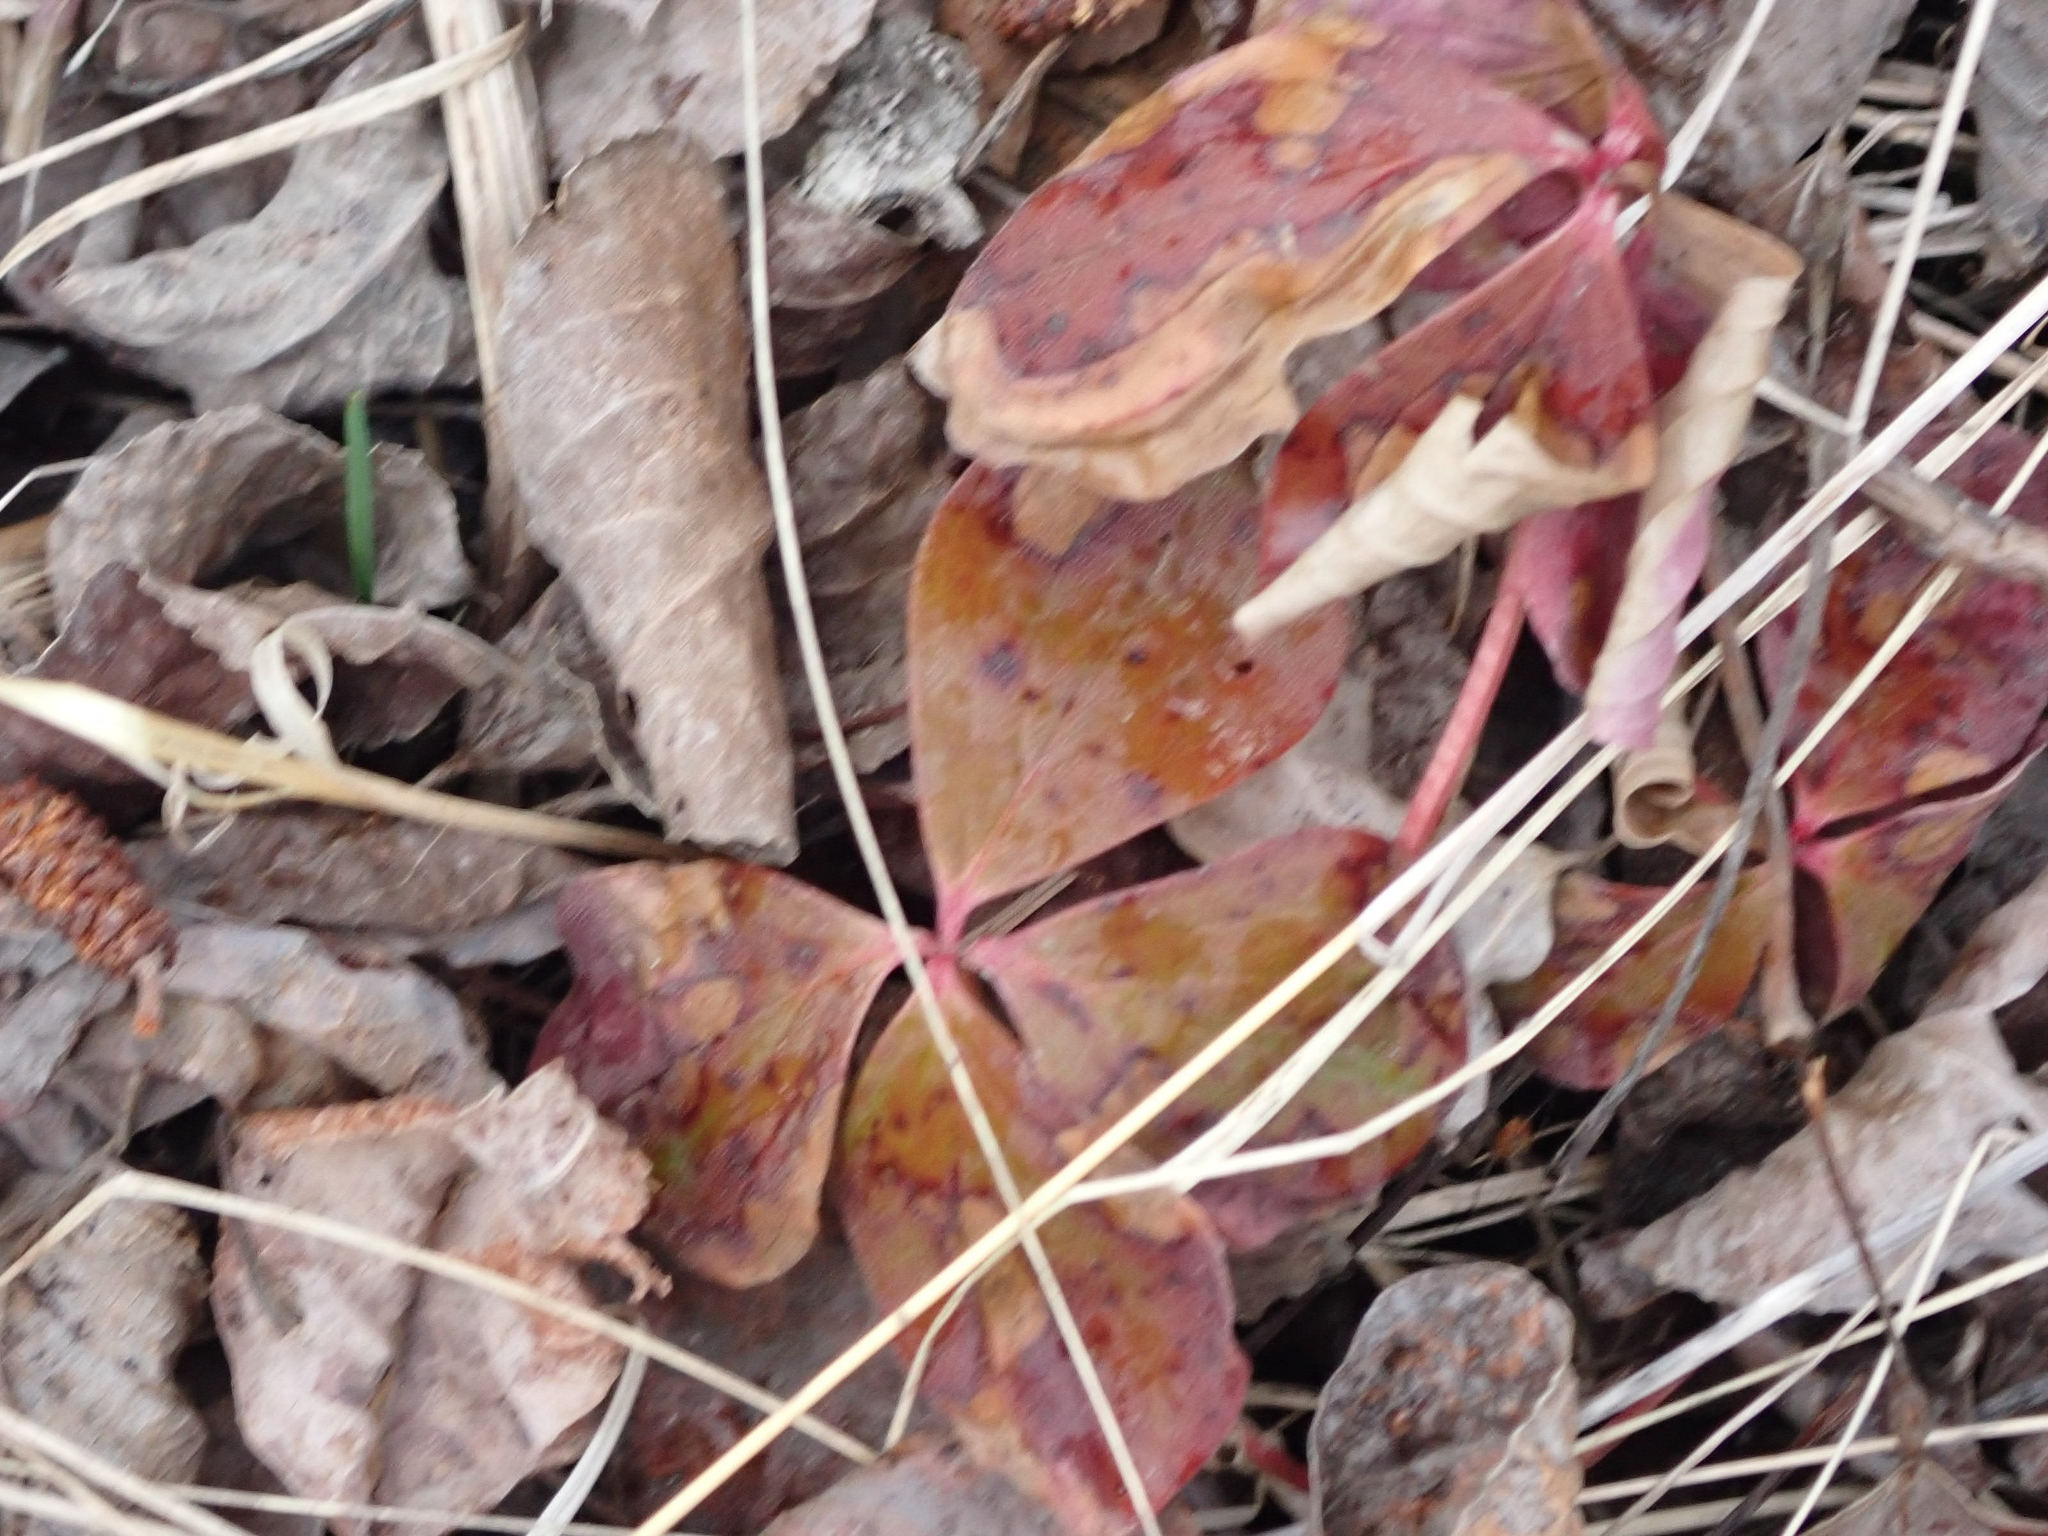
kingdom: Plantae
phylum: Tracheophyta
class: Magnoliopsida
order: Cornales
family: Cornaceae
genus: Cornus
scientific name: Cornus canadensis
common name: Creeping dogwood
